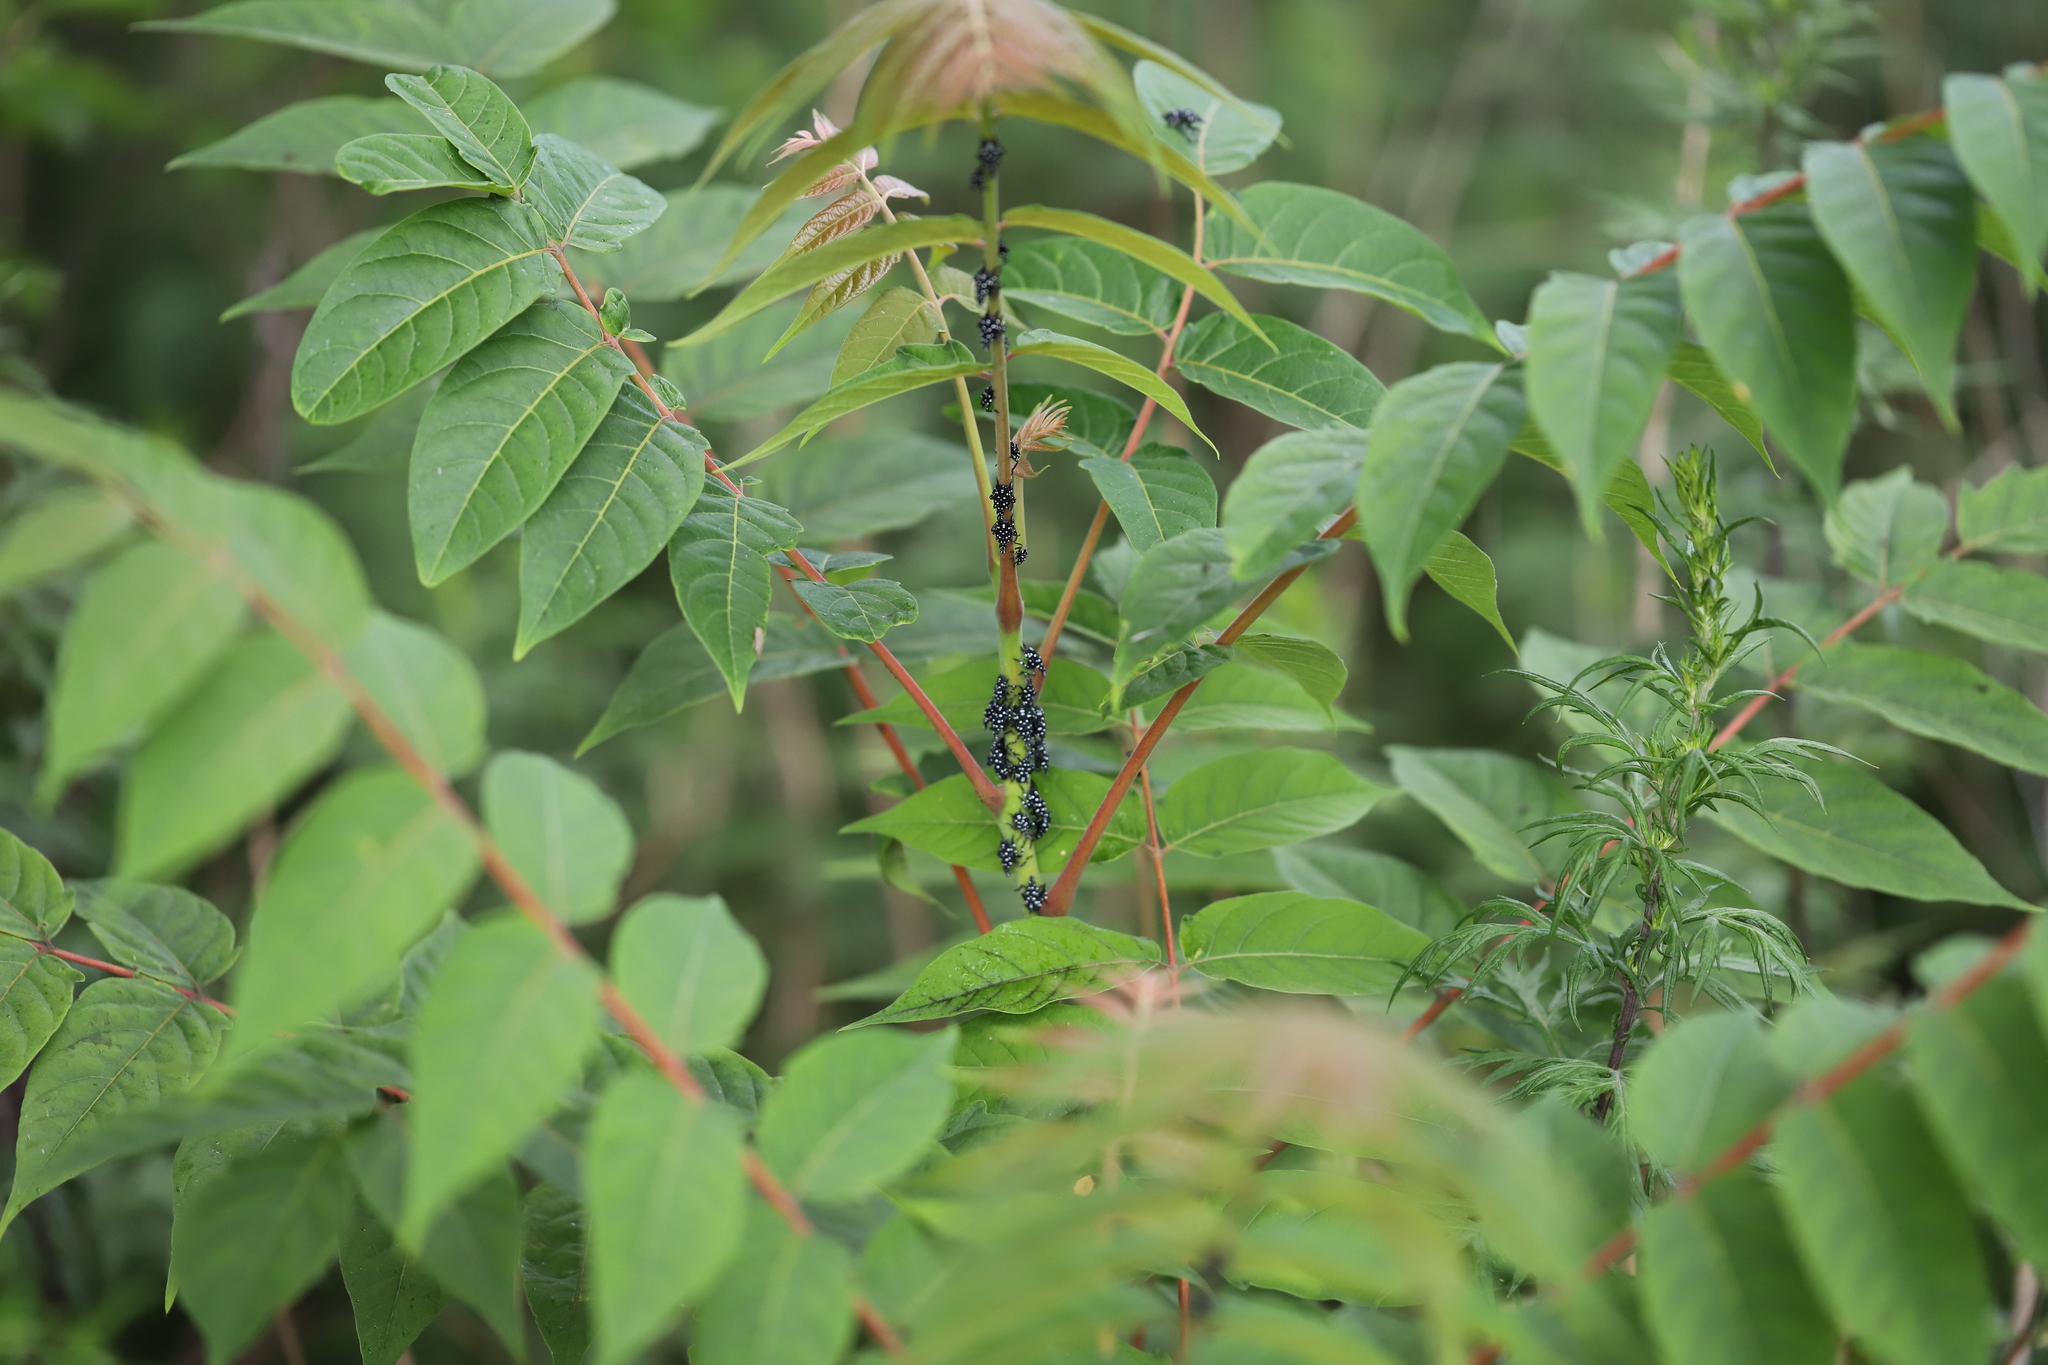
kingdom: Plantae
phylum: Tracheophyta
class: Magnoliopsida
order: Sapindales
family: Simaroubaceae
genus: Ailanthus
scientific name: Ailanthus altissima
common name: Tree-of-heaven
